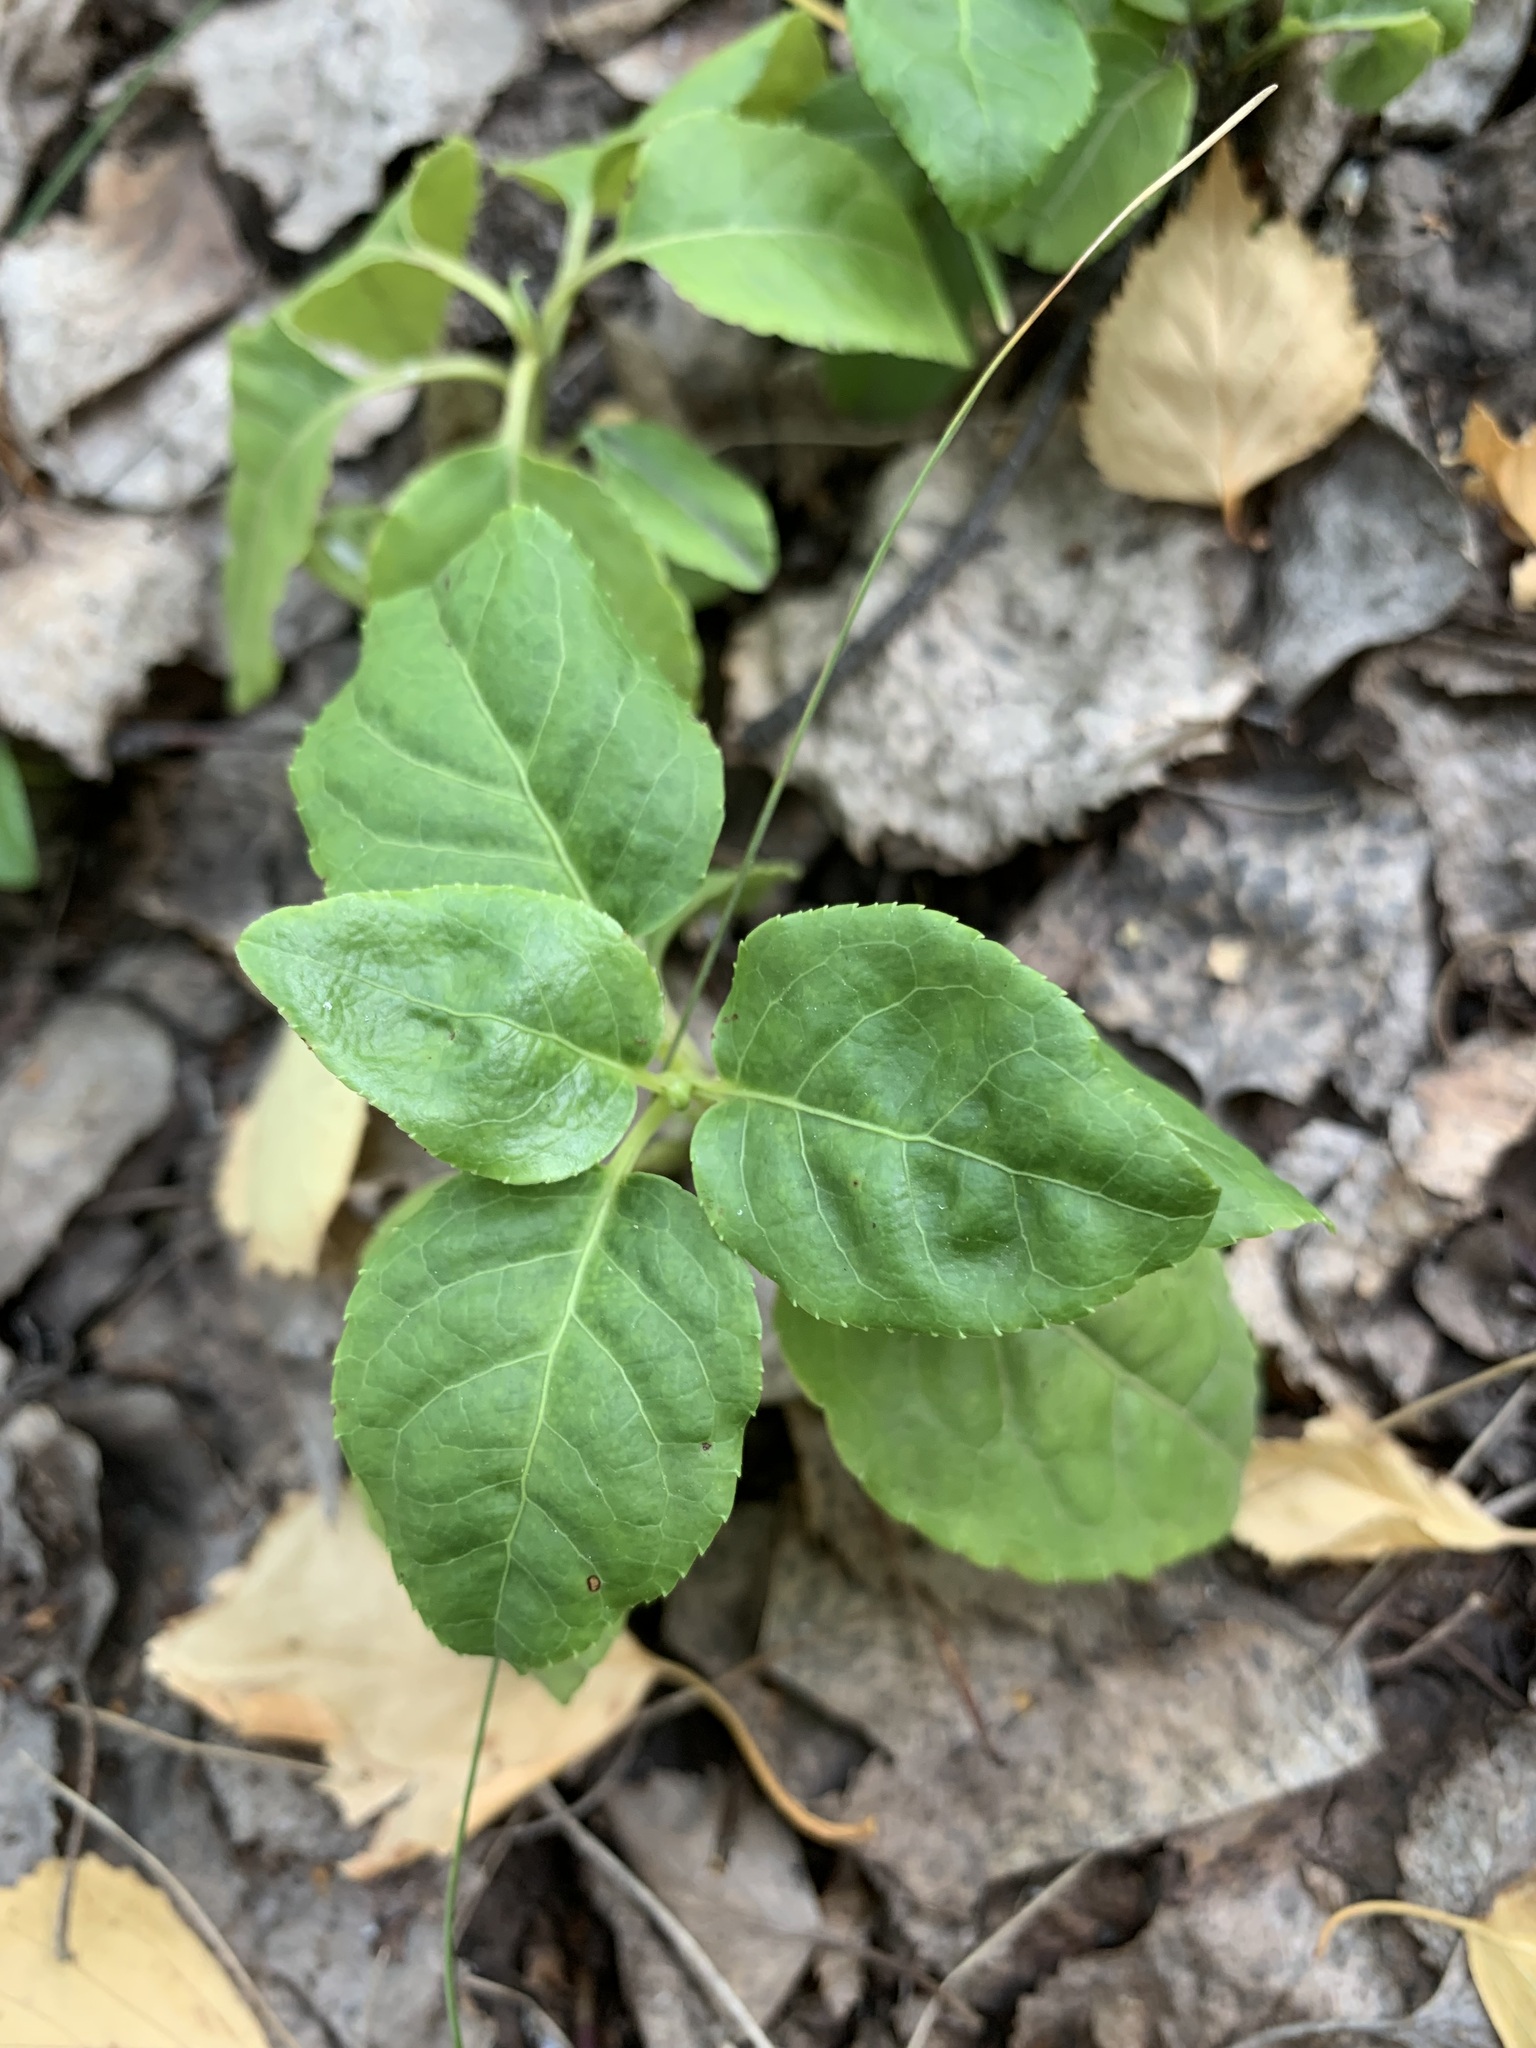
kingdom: Plantae
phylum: Tracheophyta
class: Magnoliopsida
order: Ericales
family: Ericaceae
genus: Orthilia
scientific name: Orthilia secunda
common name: One-sided orthilia
